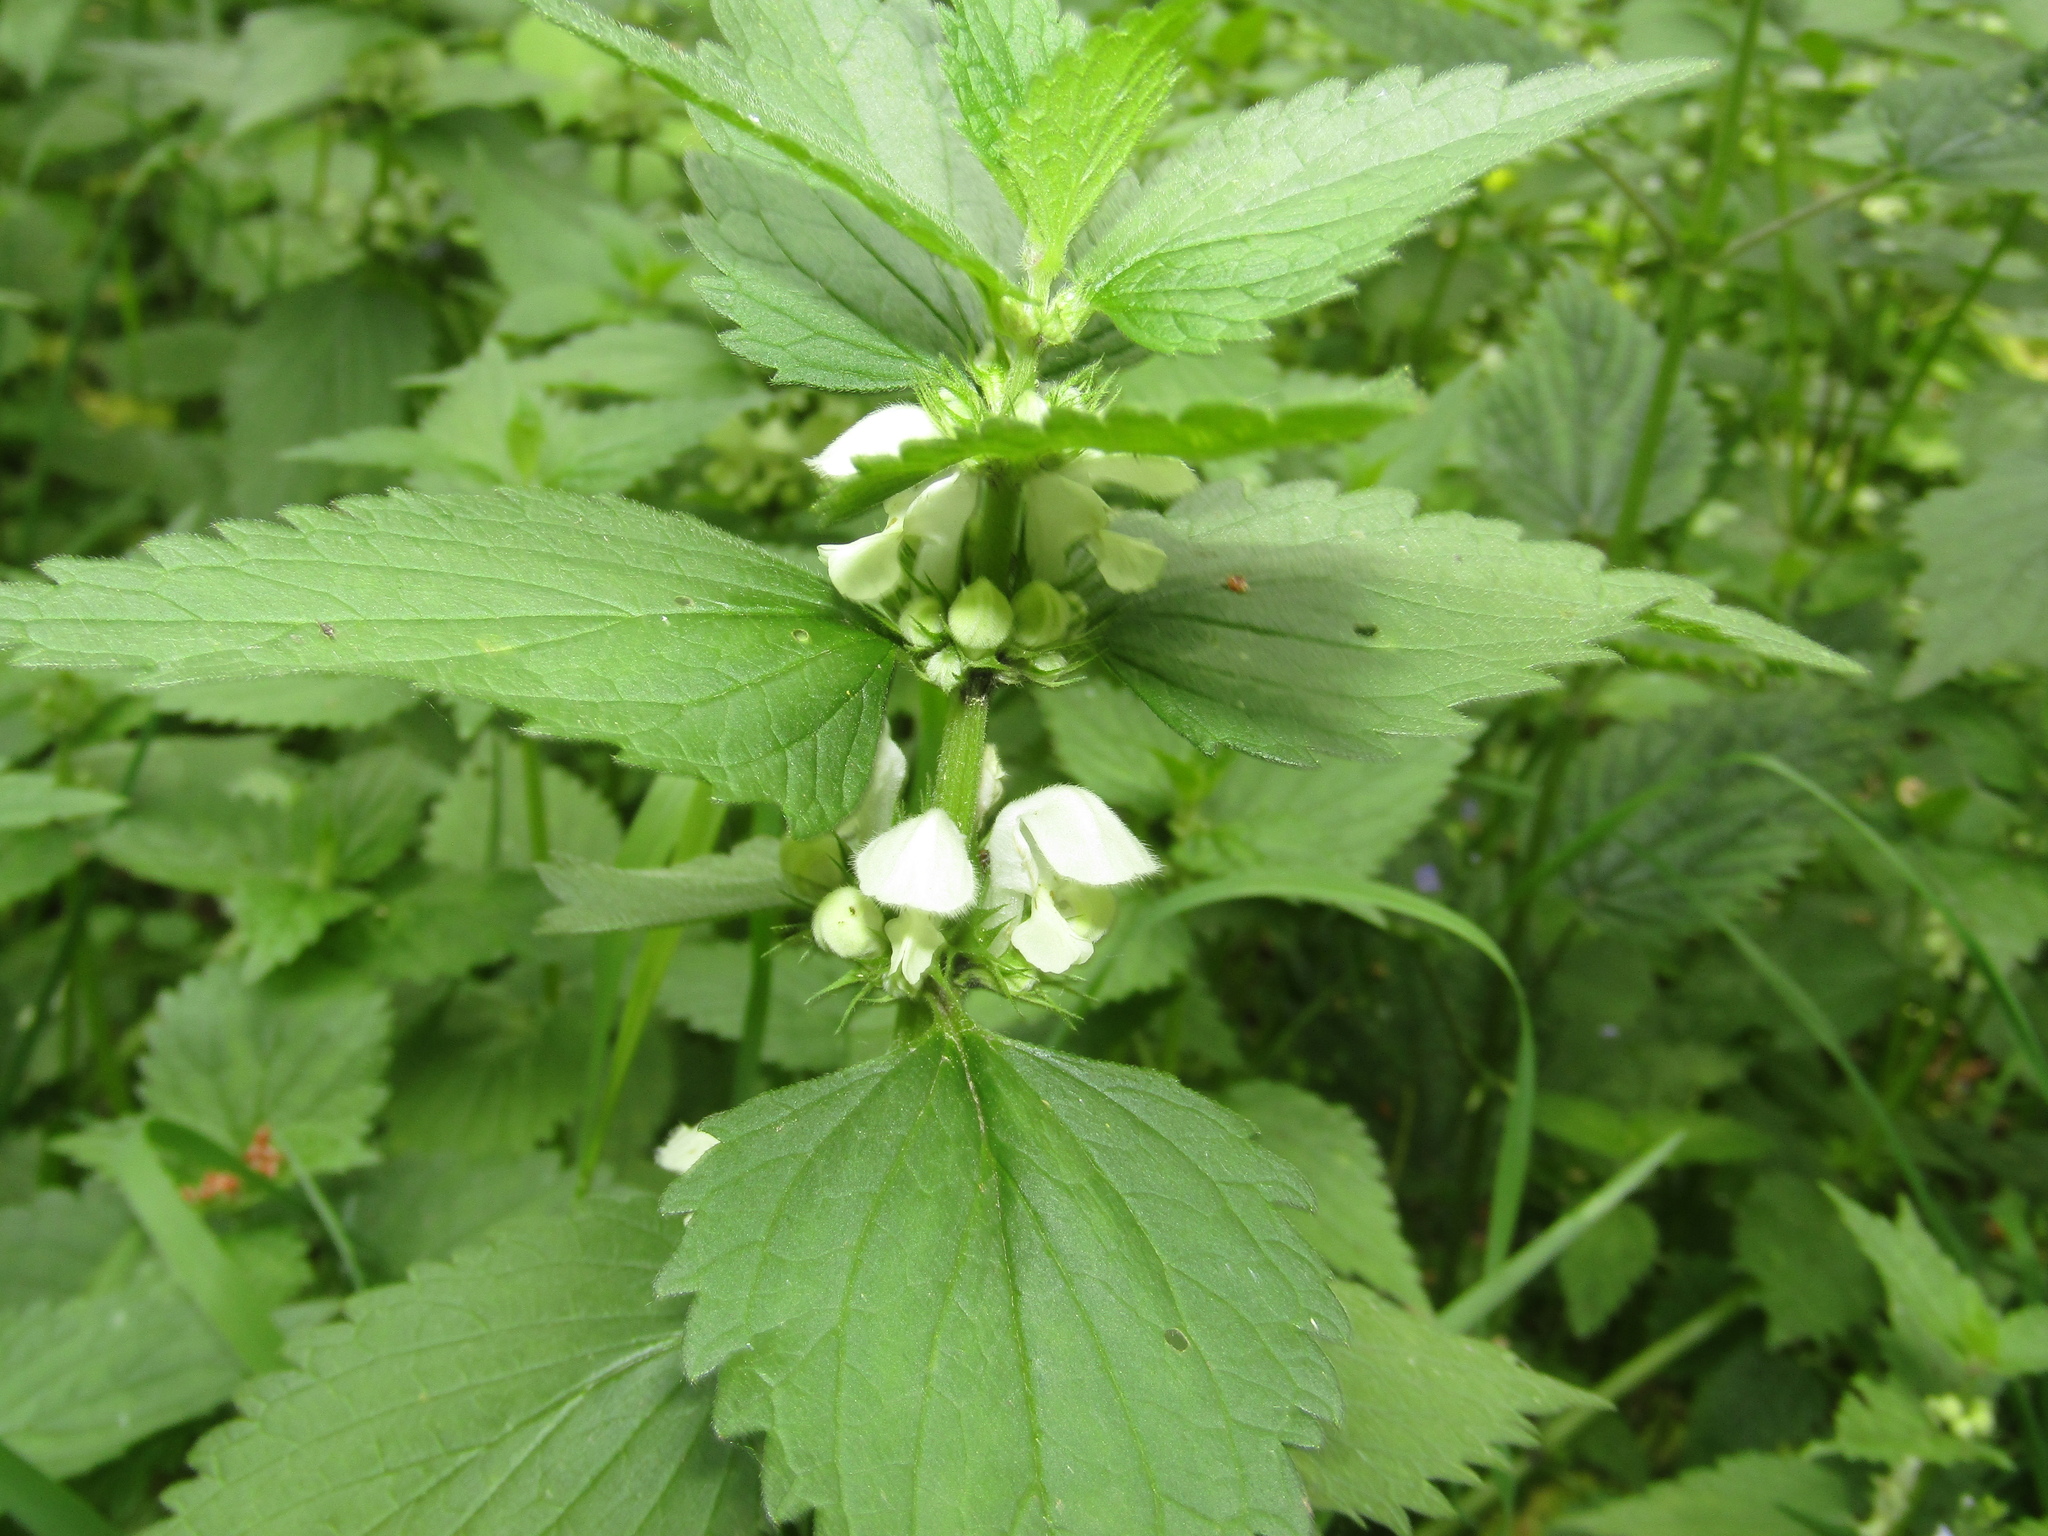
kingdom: Plantae
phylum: Tracheophyta
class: Magnoliopsida
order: Lamiales
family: Lamiaceae
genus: Lamium
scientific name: Lamium album
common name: White dead-nettle
